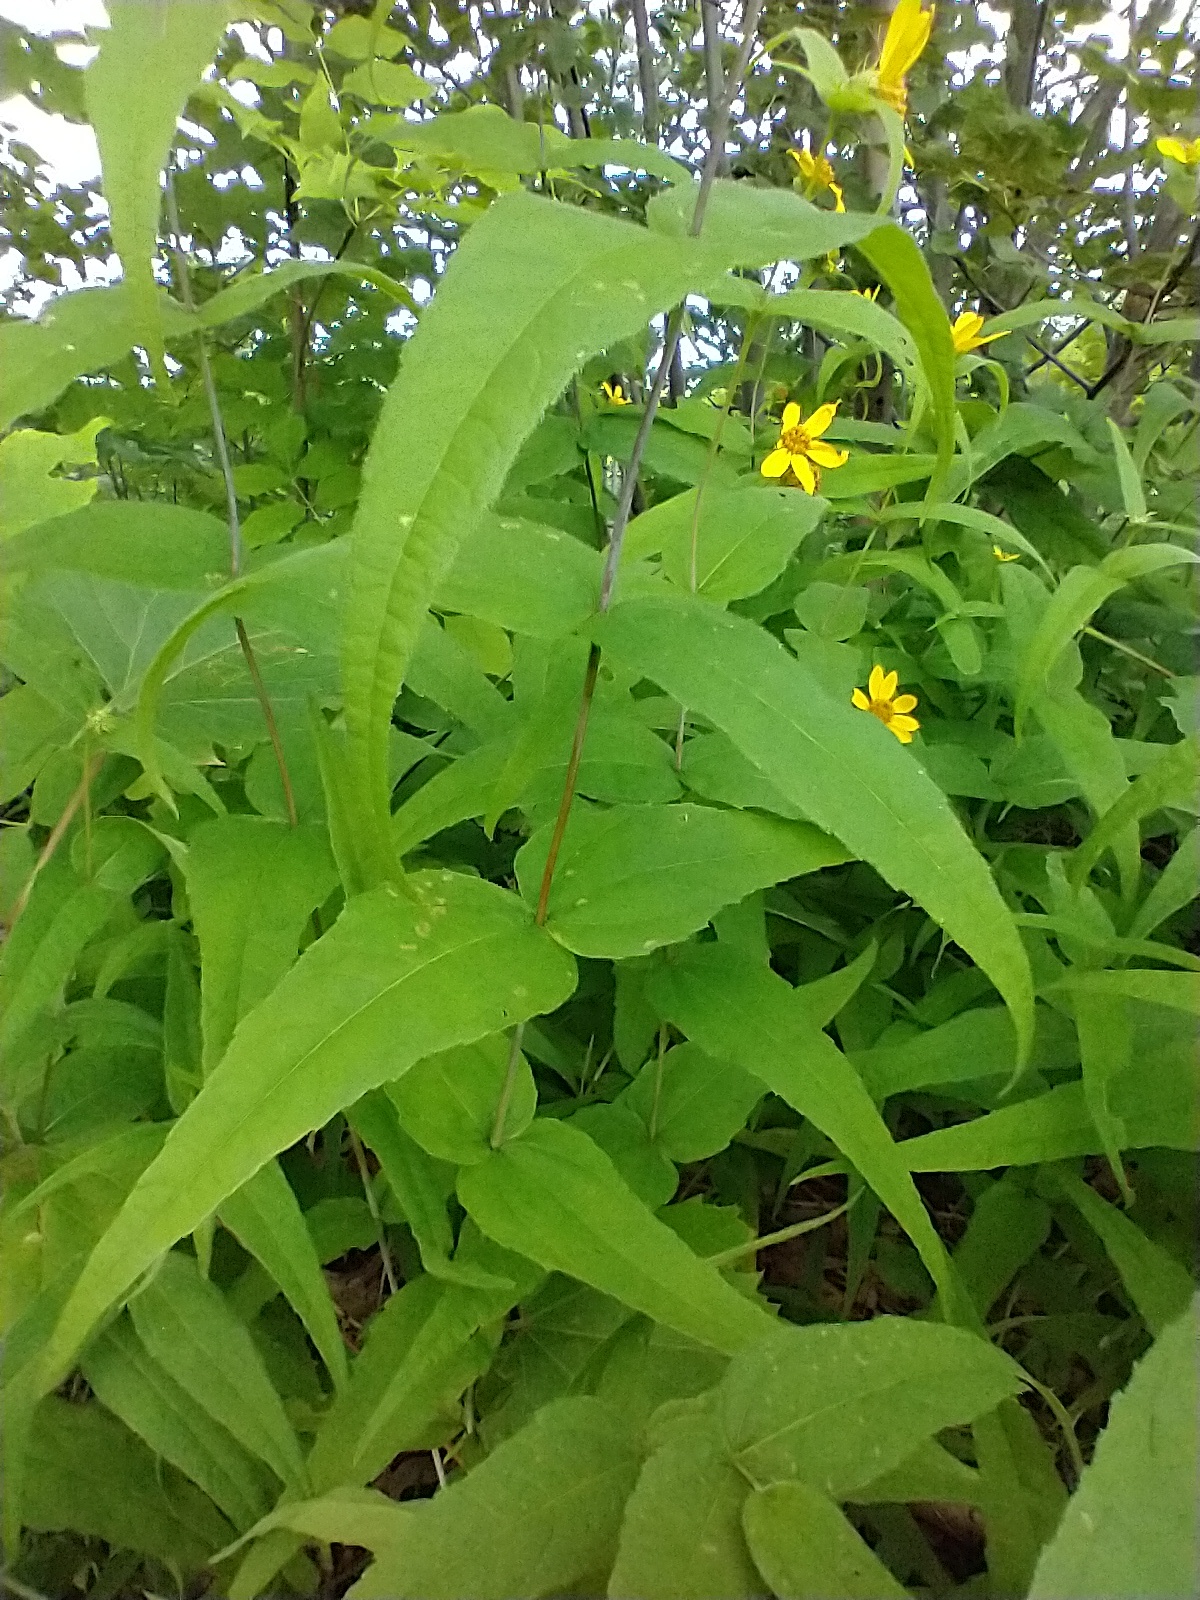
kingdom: Plantae
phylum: Tracheophyta
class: Magnoliopsida
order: Asterales
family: Asteraceae
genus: Helianthus
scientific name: Helianthus divaricatus
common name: Divergent sunflower
